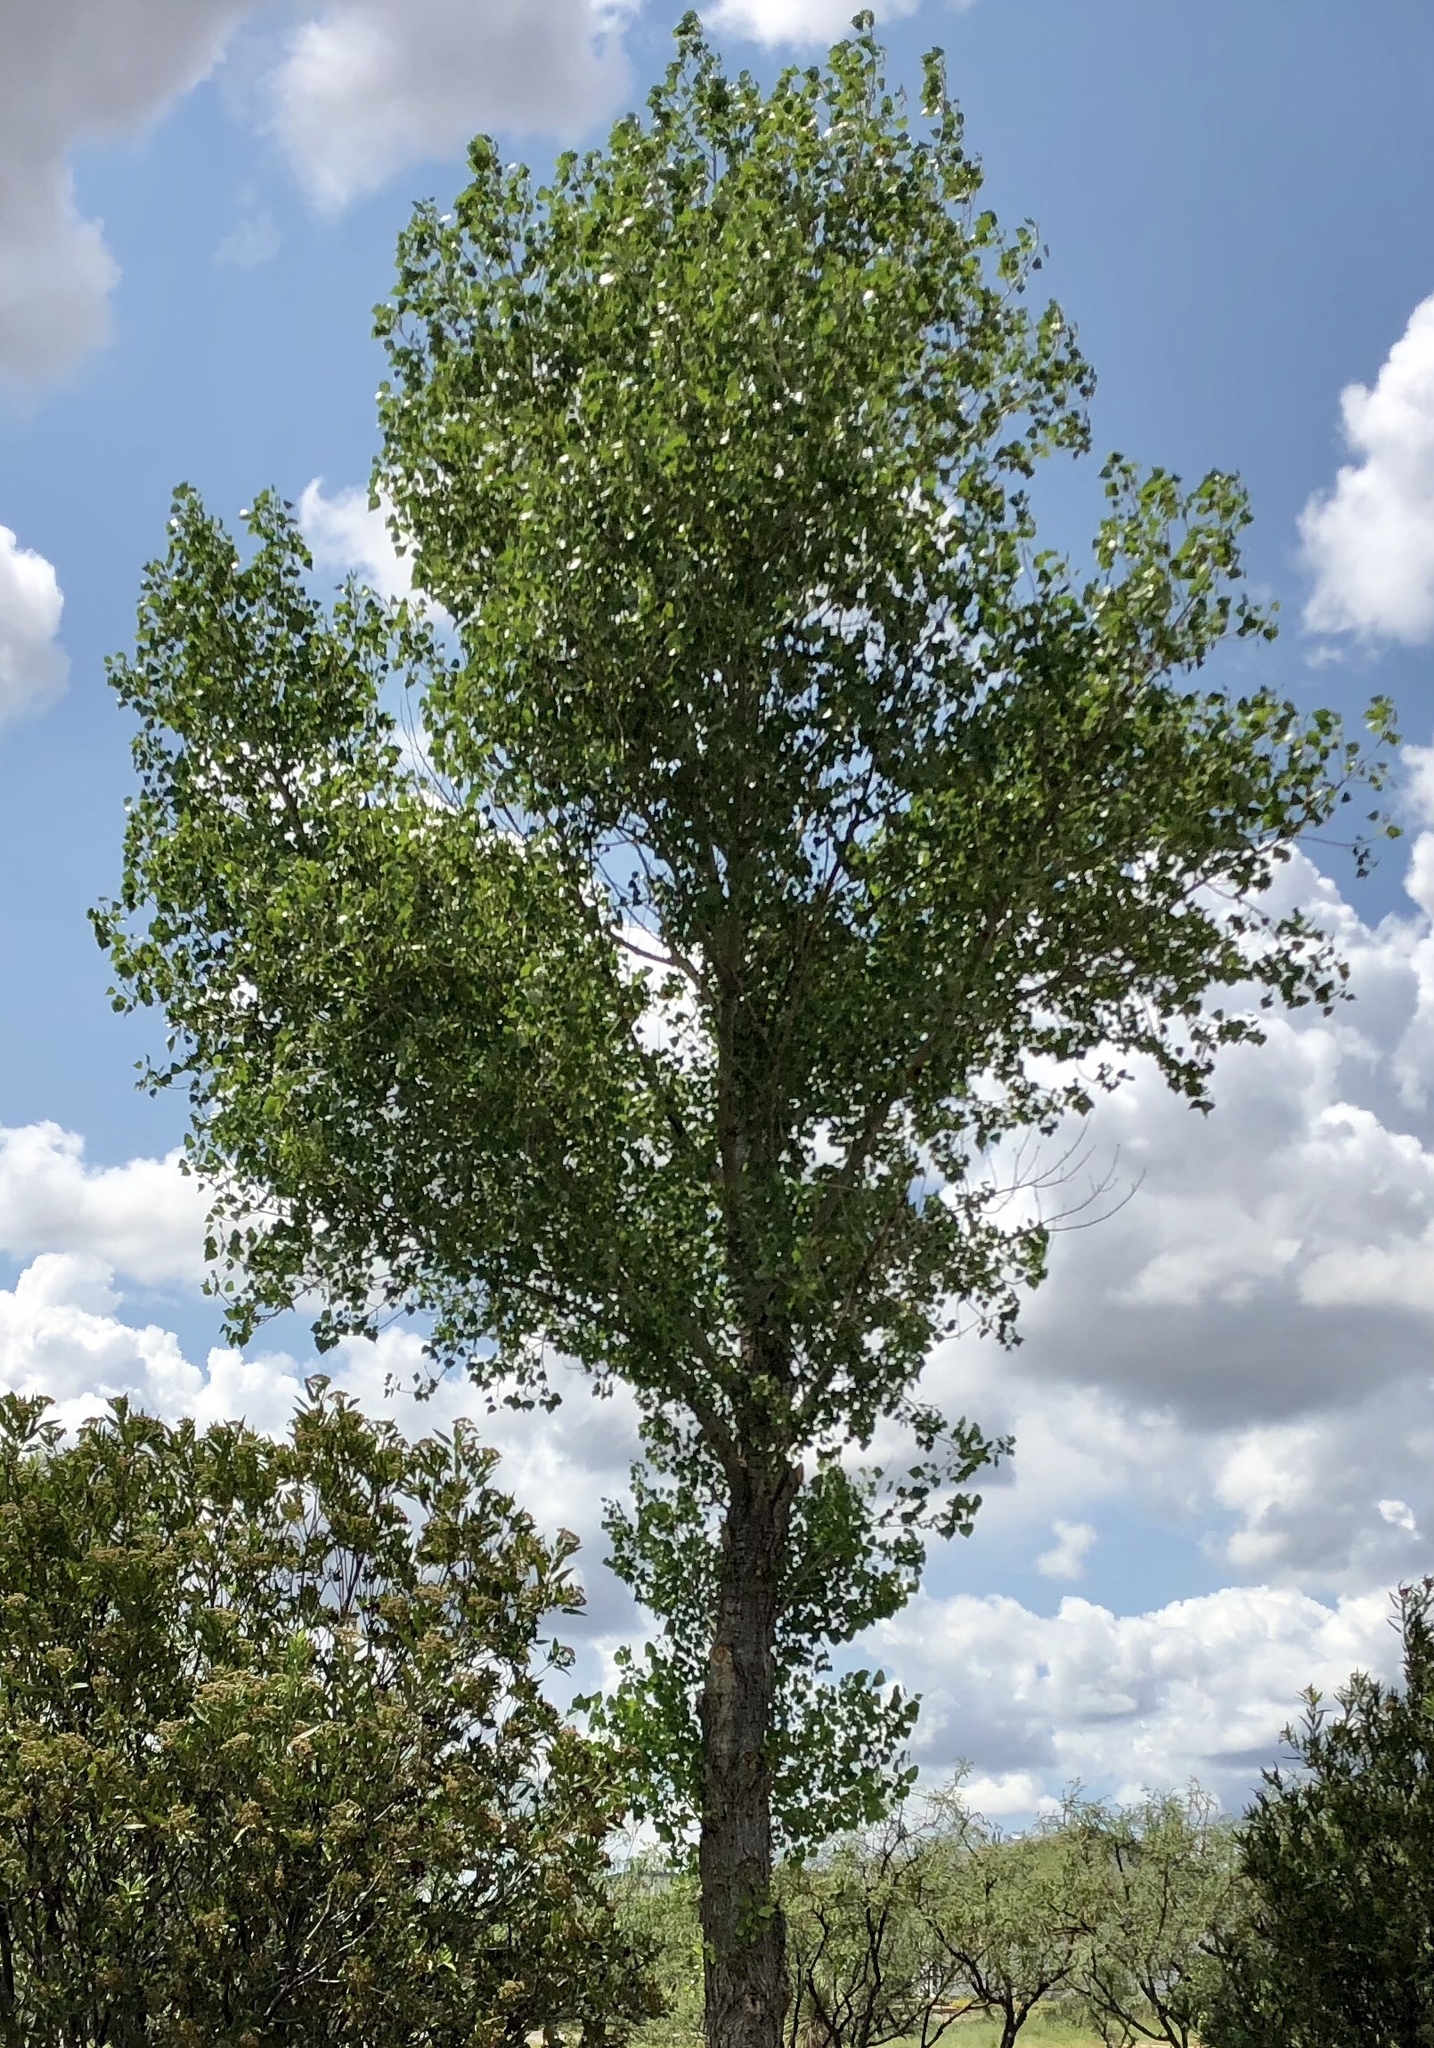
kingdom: Plantae
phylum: Tracheophyta
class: Magnoliopsida
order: Malpighiales
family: Salicaceae
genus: Populus
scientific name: Populus fremontii
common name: Fremont's cottonwood
